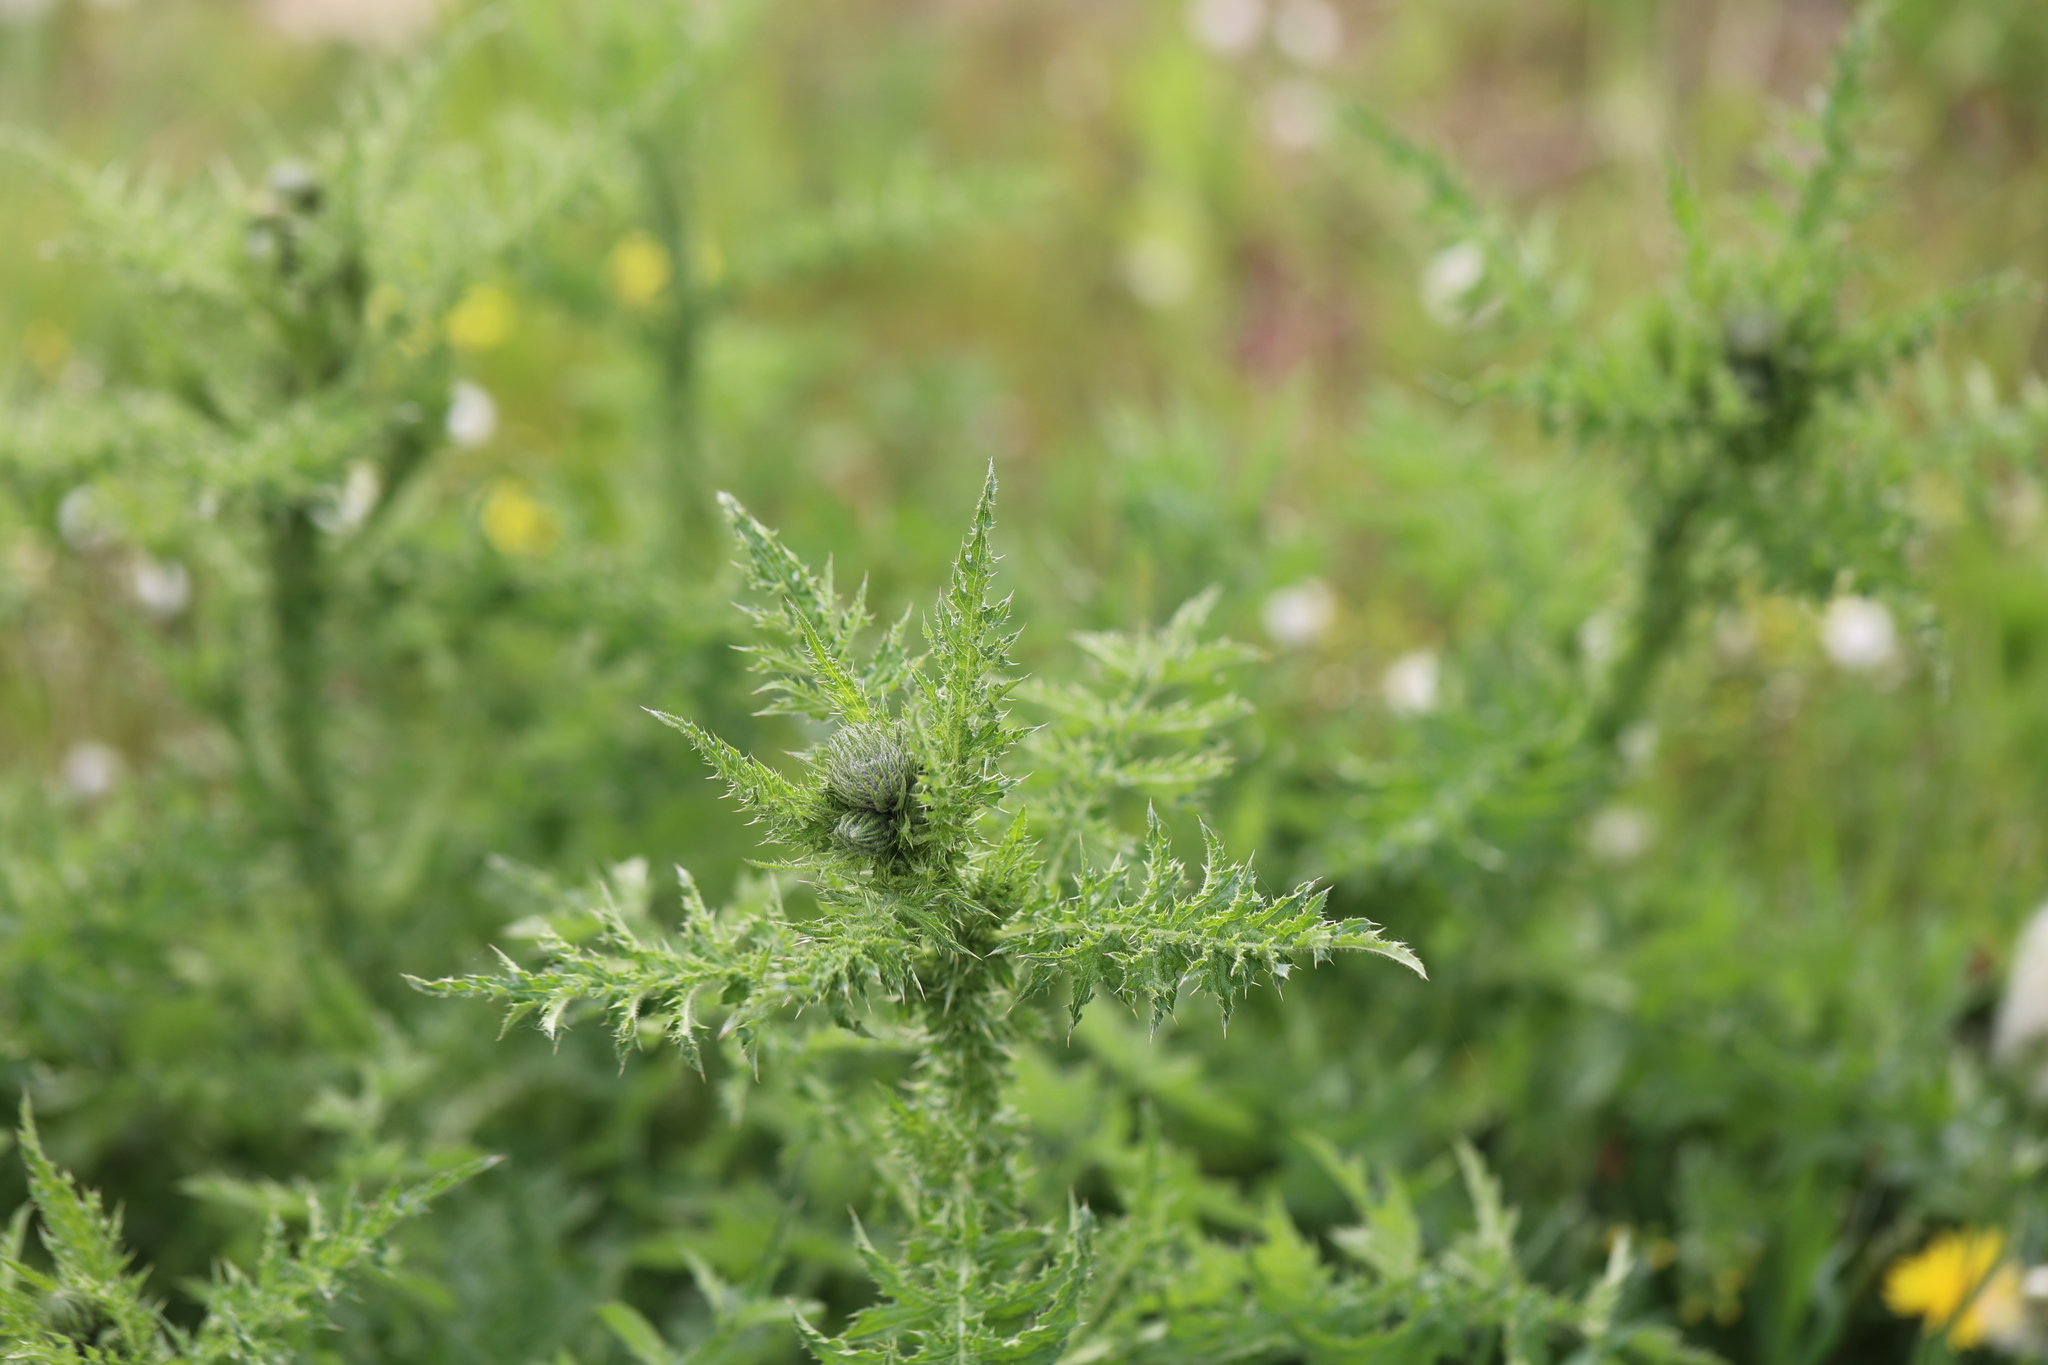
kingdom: Plantae
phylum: Tracheophyta
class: Magnoliopsida
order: Asterales
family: Asteraceae
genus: Carduus
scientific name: Carduus crispus
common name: Welted thistle
